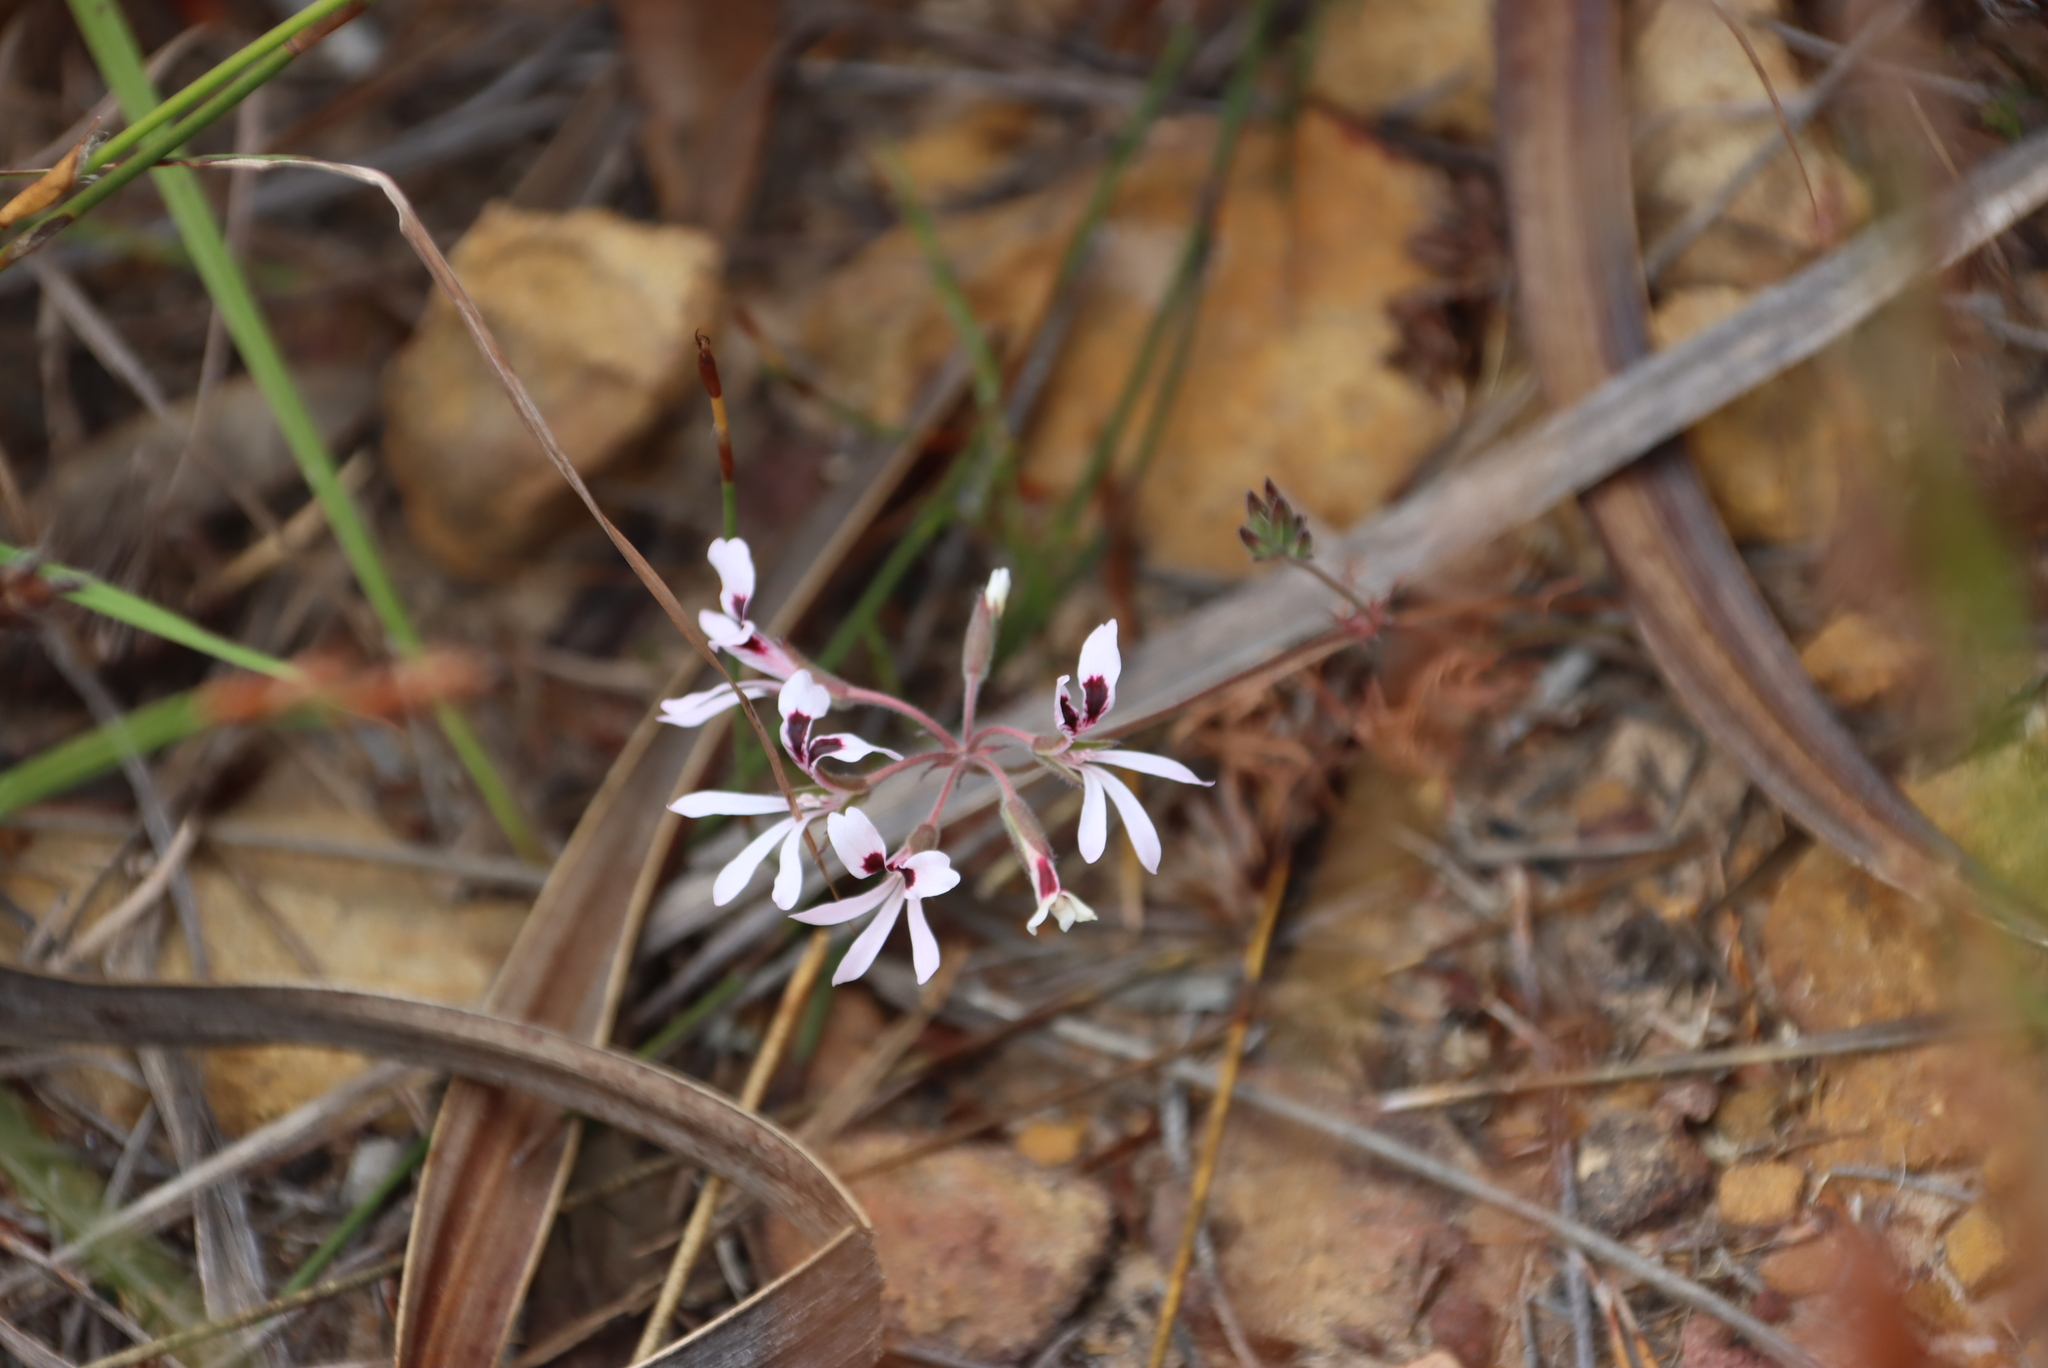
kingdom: Plantae
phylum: Tracheophyta
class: Magnoliopsida
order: Geraniales
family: Geraniaceae
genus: Pelargonium
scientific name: Pelargonium psammophilum
